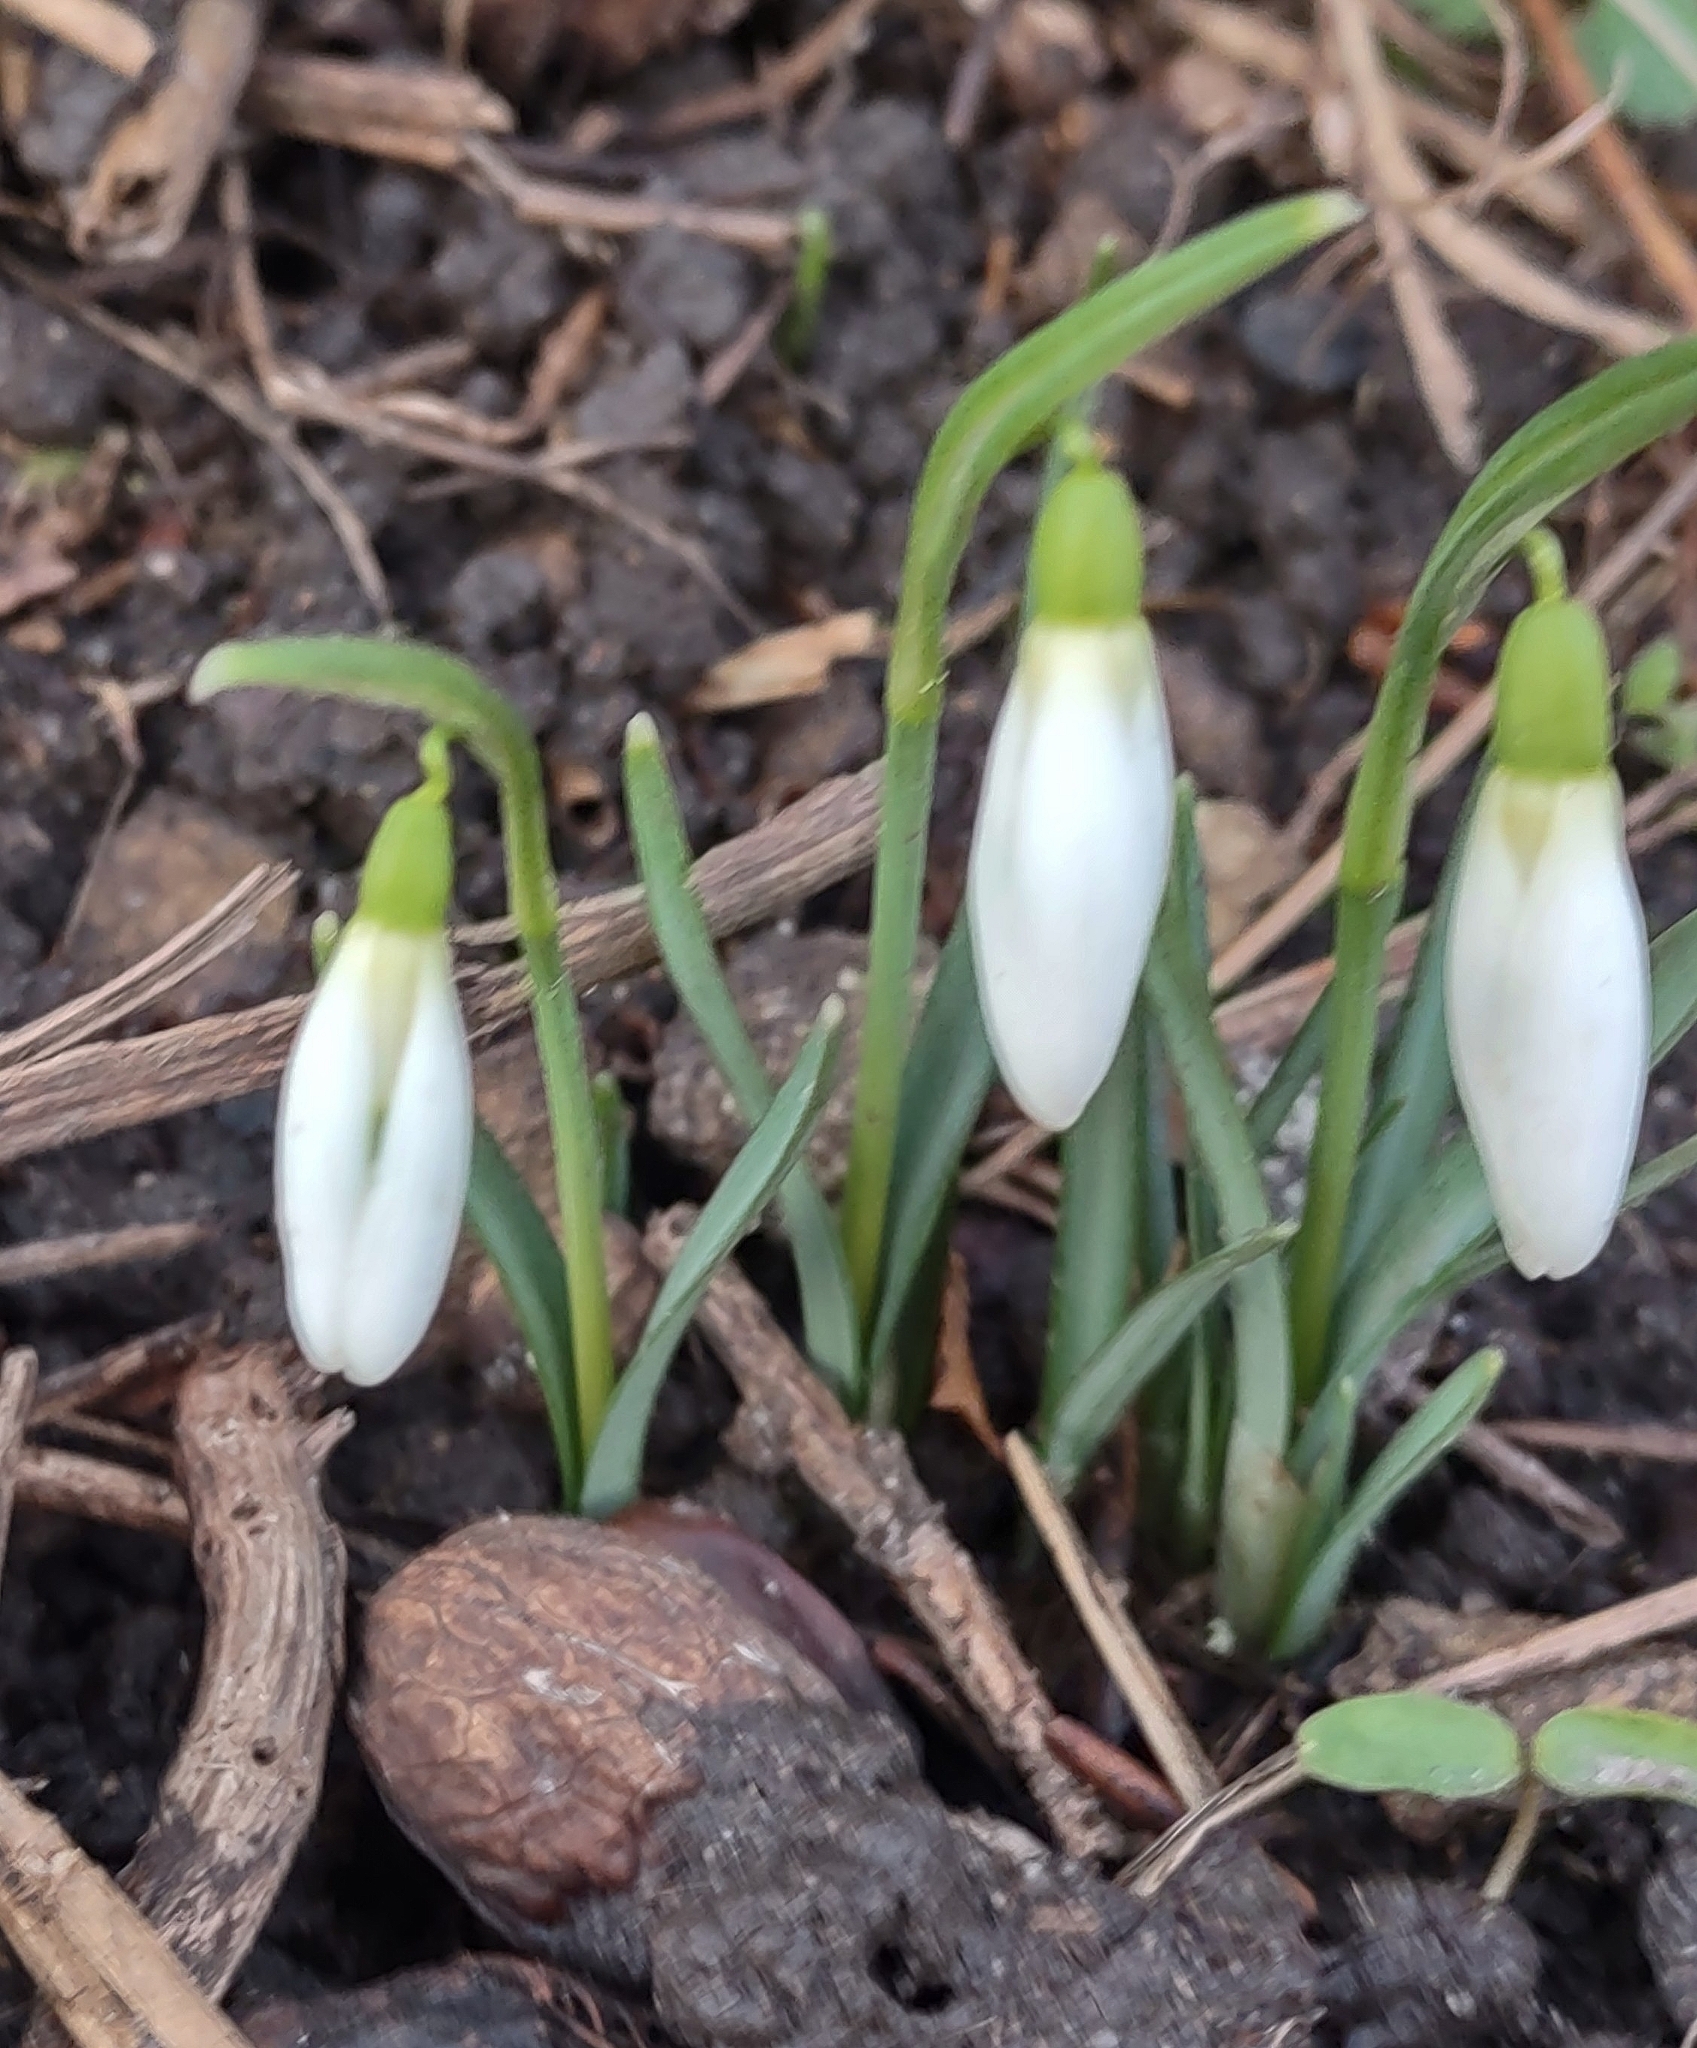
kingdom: Plantae
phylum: Tracheophyta
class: Liliopsida
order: Asparagales
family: Amaryllidaceae
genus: Galanthus
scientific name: Galanthus nivalis
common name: Snowdrop
